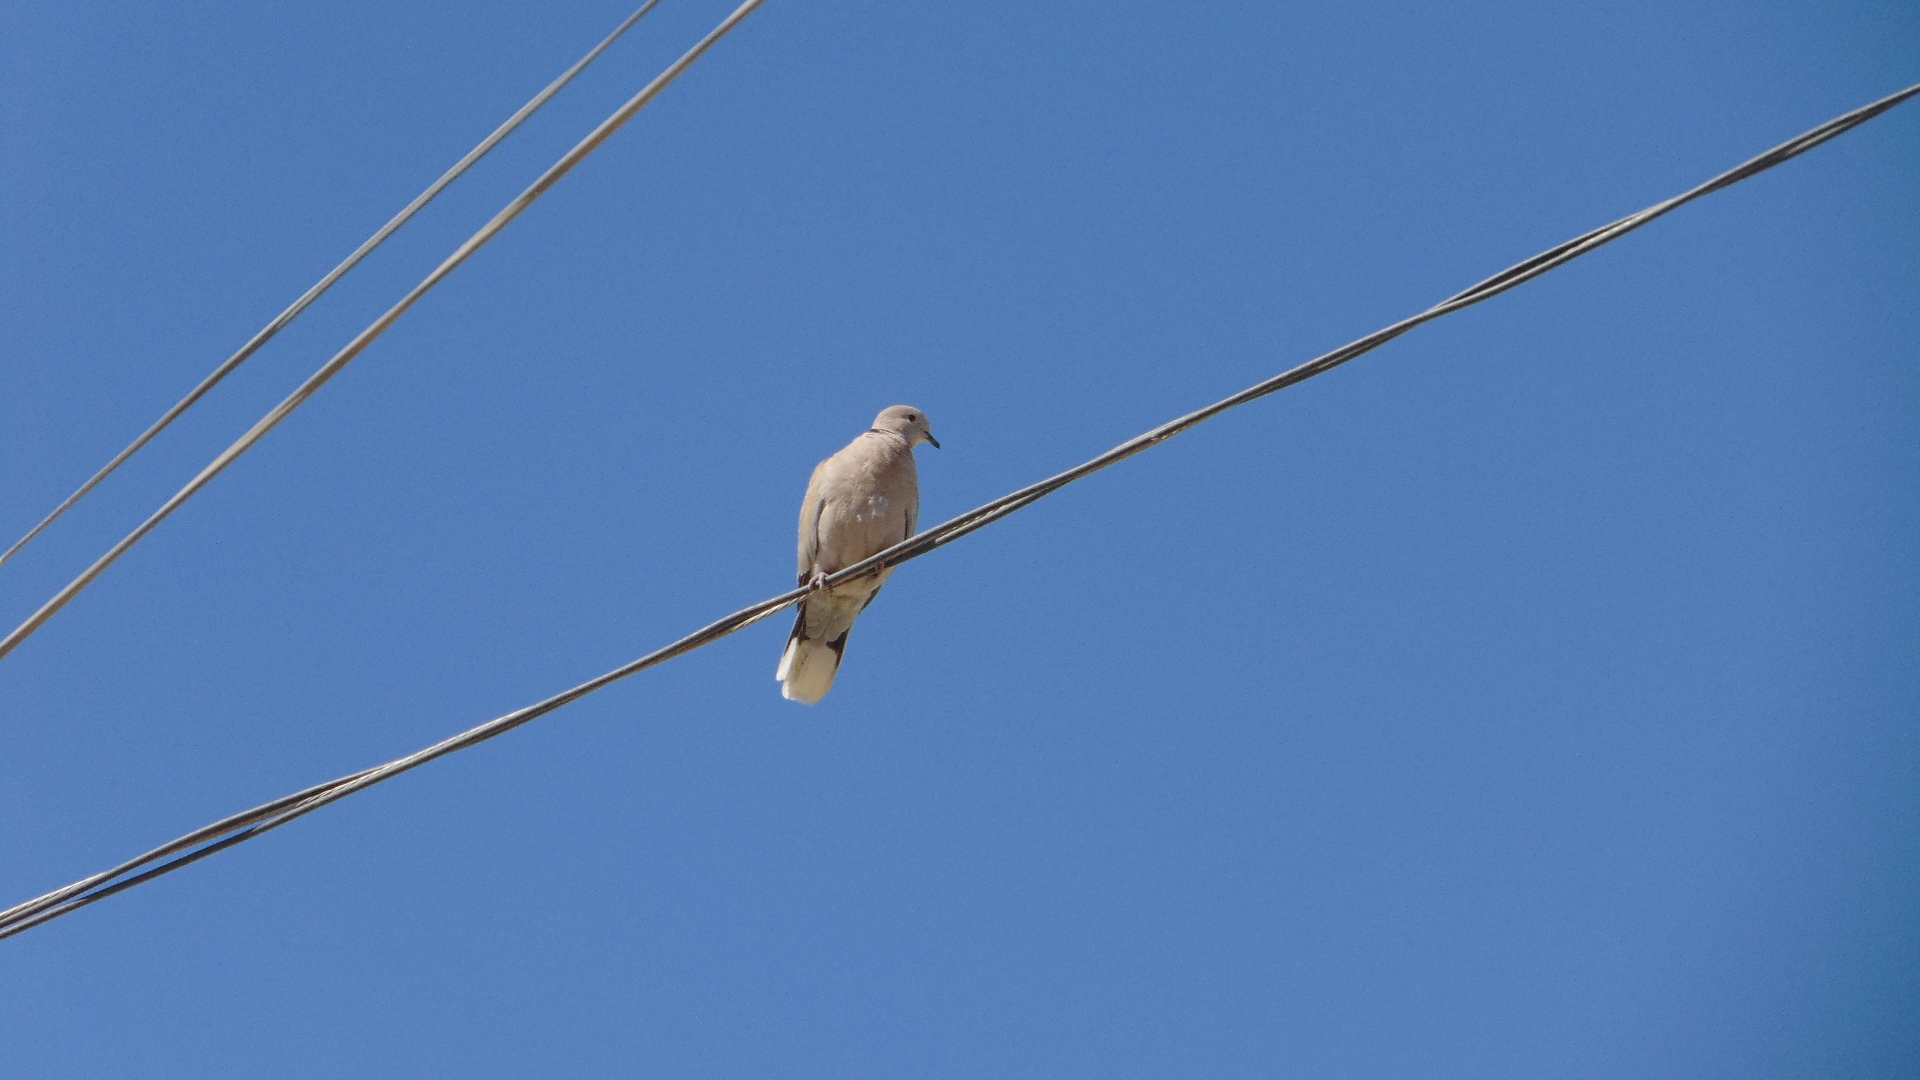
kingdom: Animalia
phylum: Chordata
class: Aves
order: Columbiformes
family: Columbidae
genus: Streptopelia
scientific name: Streptopelia decaocto
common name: Eurasian collared dove
